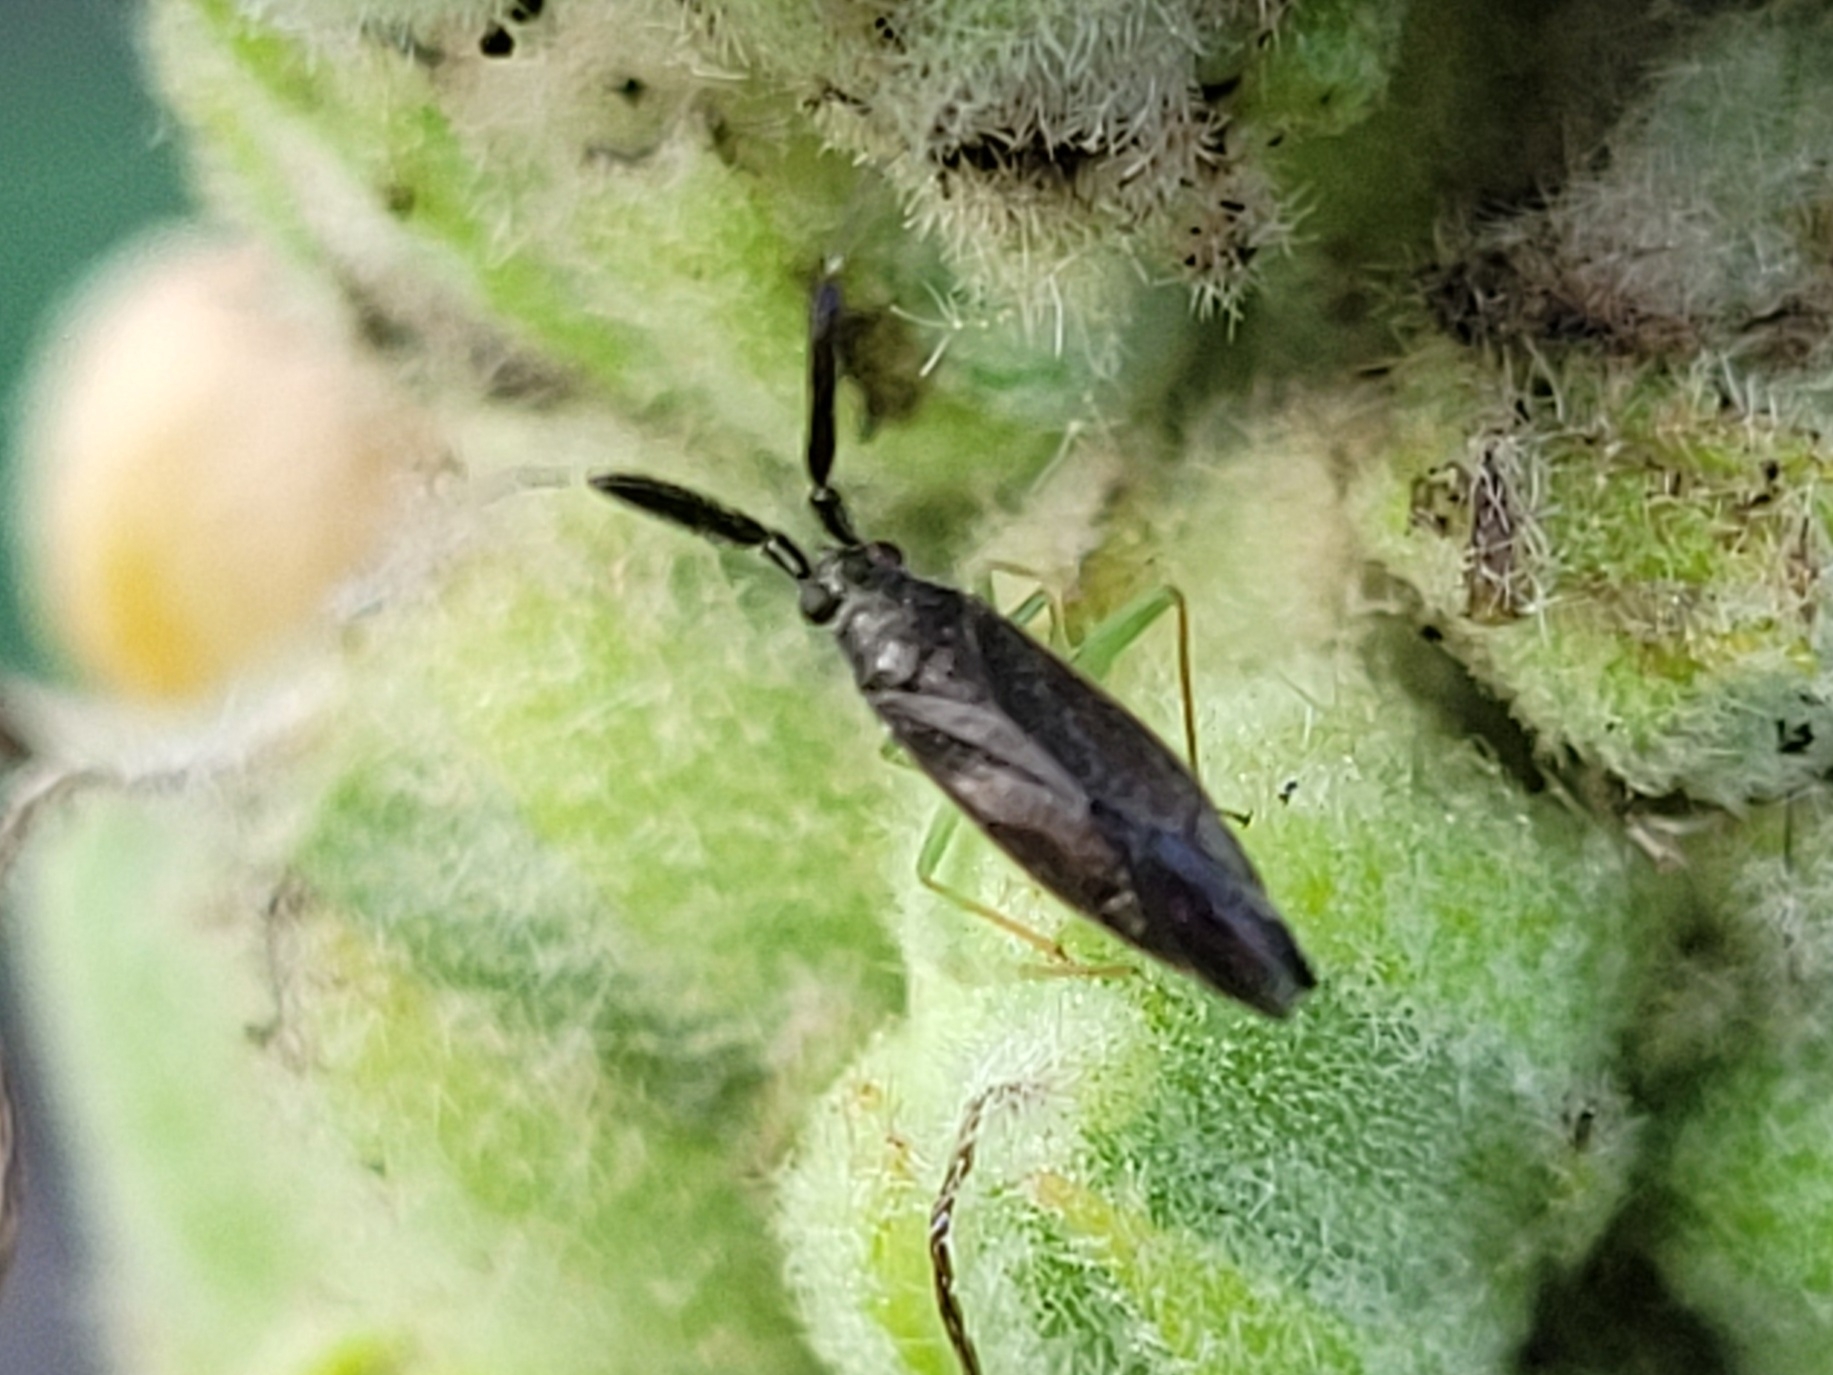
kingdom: Animalia
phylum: Arthropoda
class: Insecta
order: Hemiptera
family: Miridae
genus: Heterotoma
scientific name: Heterotoma planicornis
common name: Plant bug
